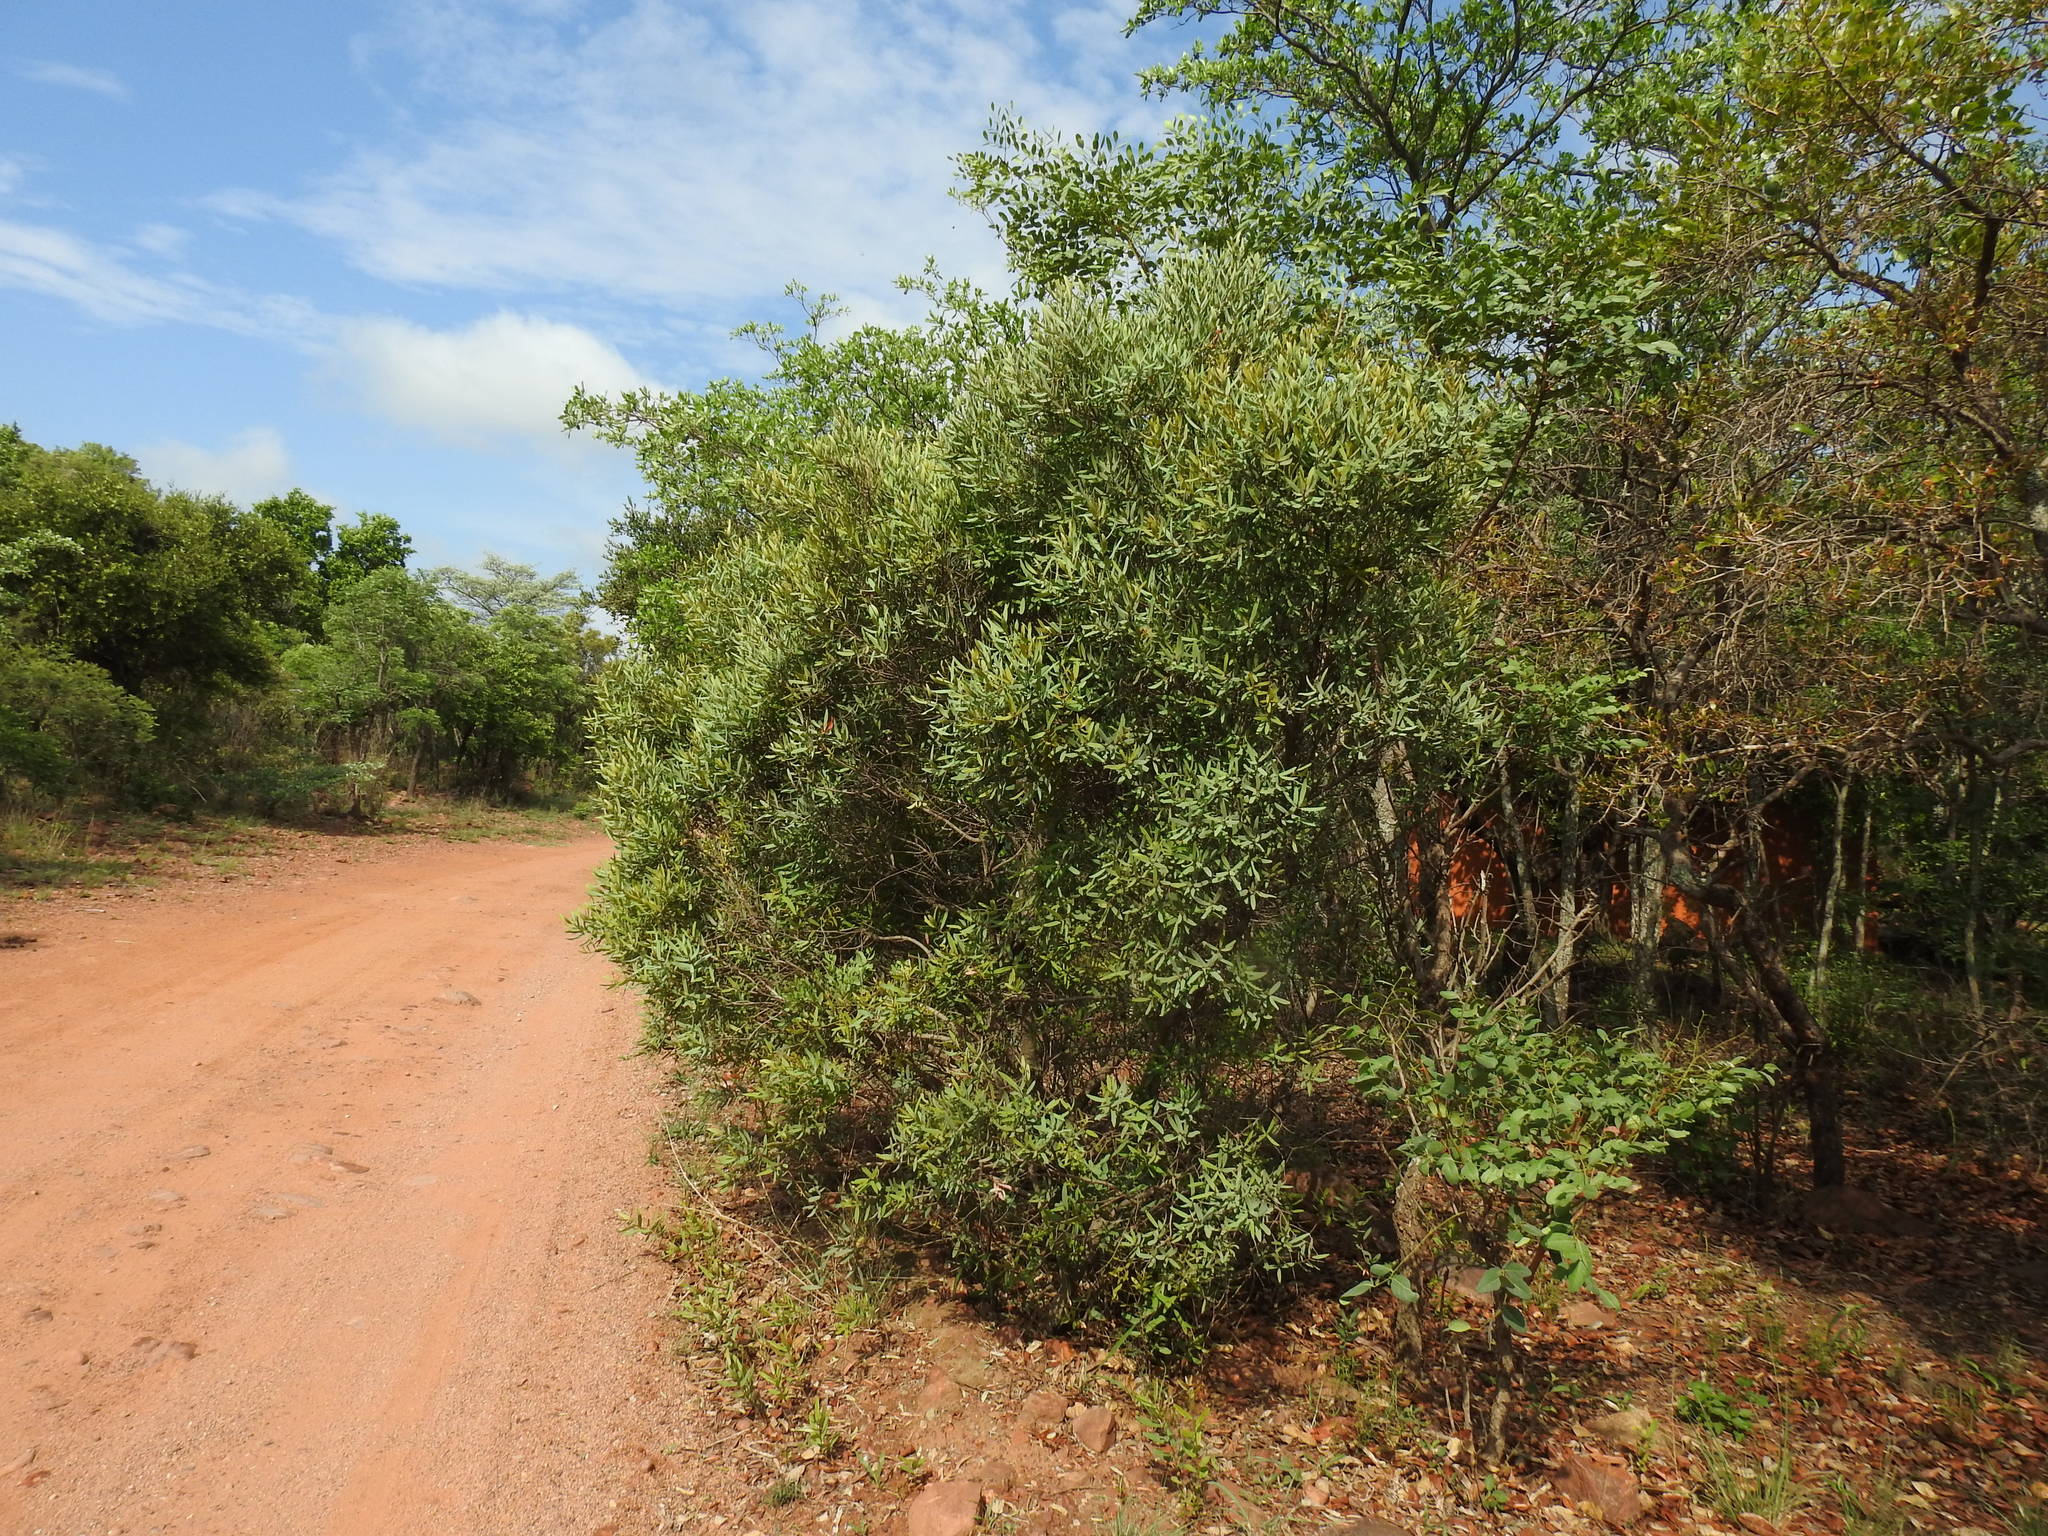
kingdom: Plantae
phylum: Tracheophyta
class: Magnoliopsida
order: Ericales
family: Ebenaceae
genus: Euclea
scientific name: Euclea crispa
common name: Blue guarri
